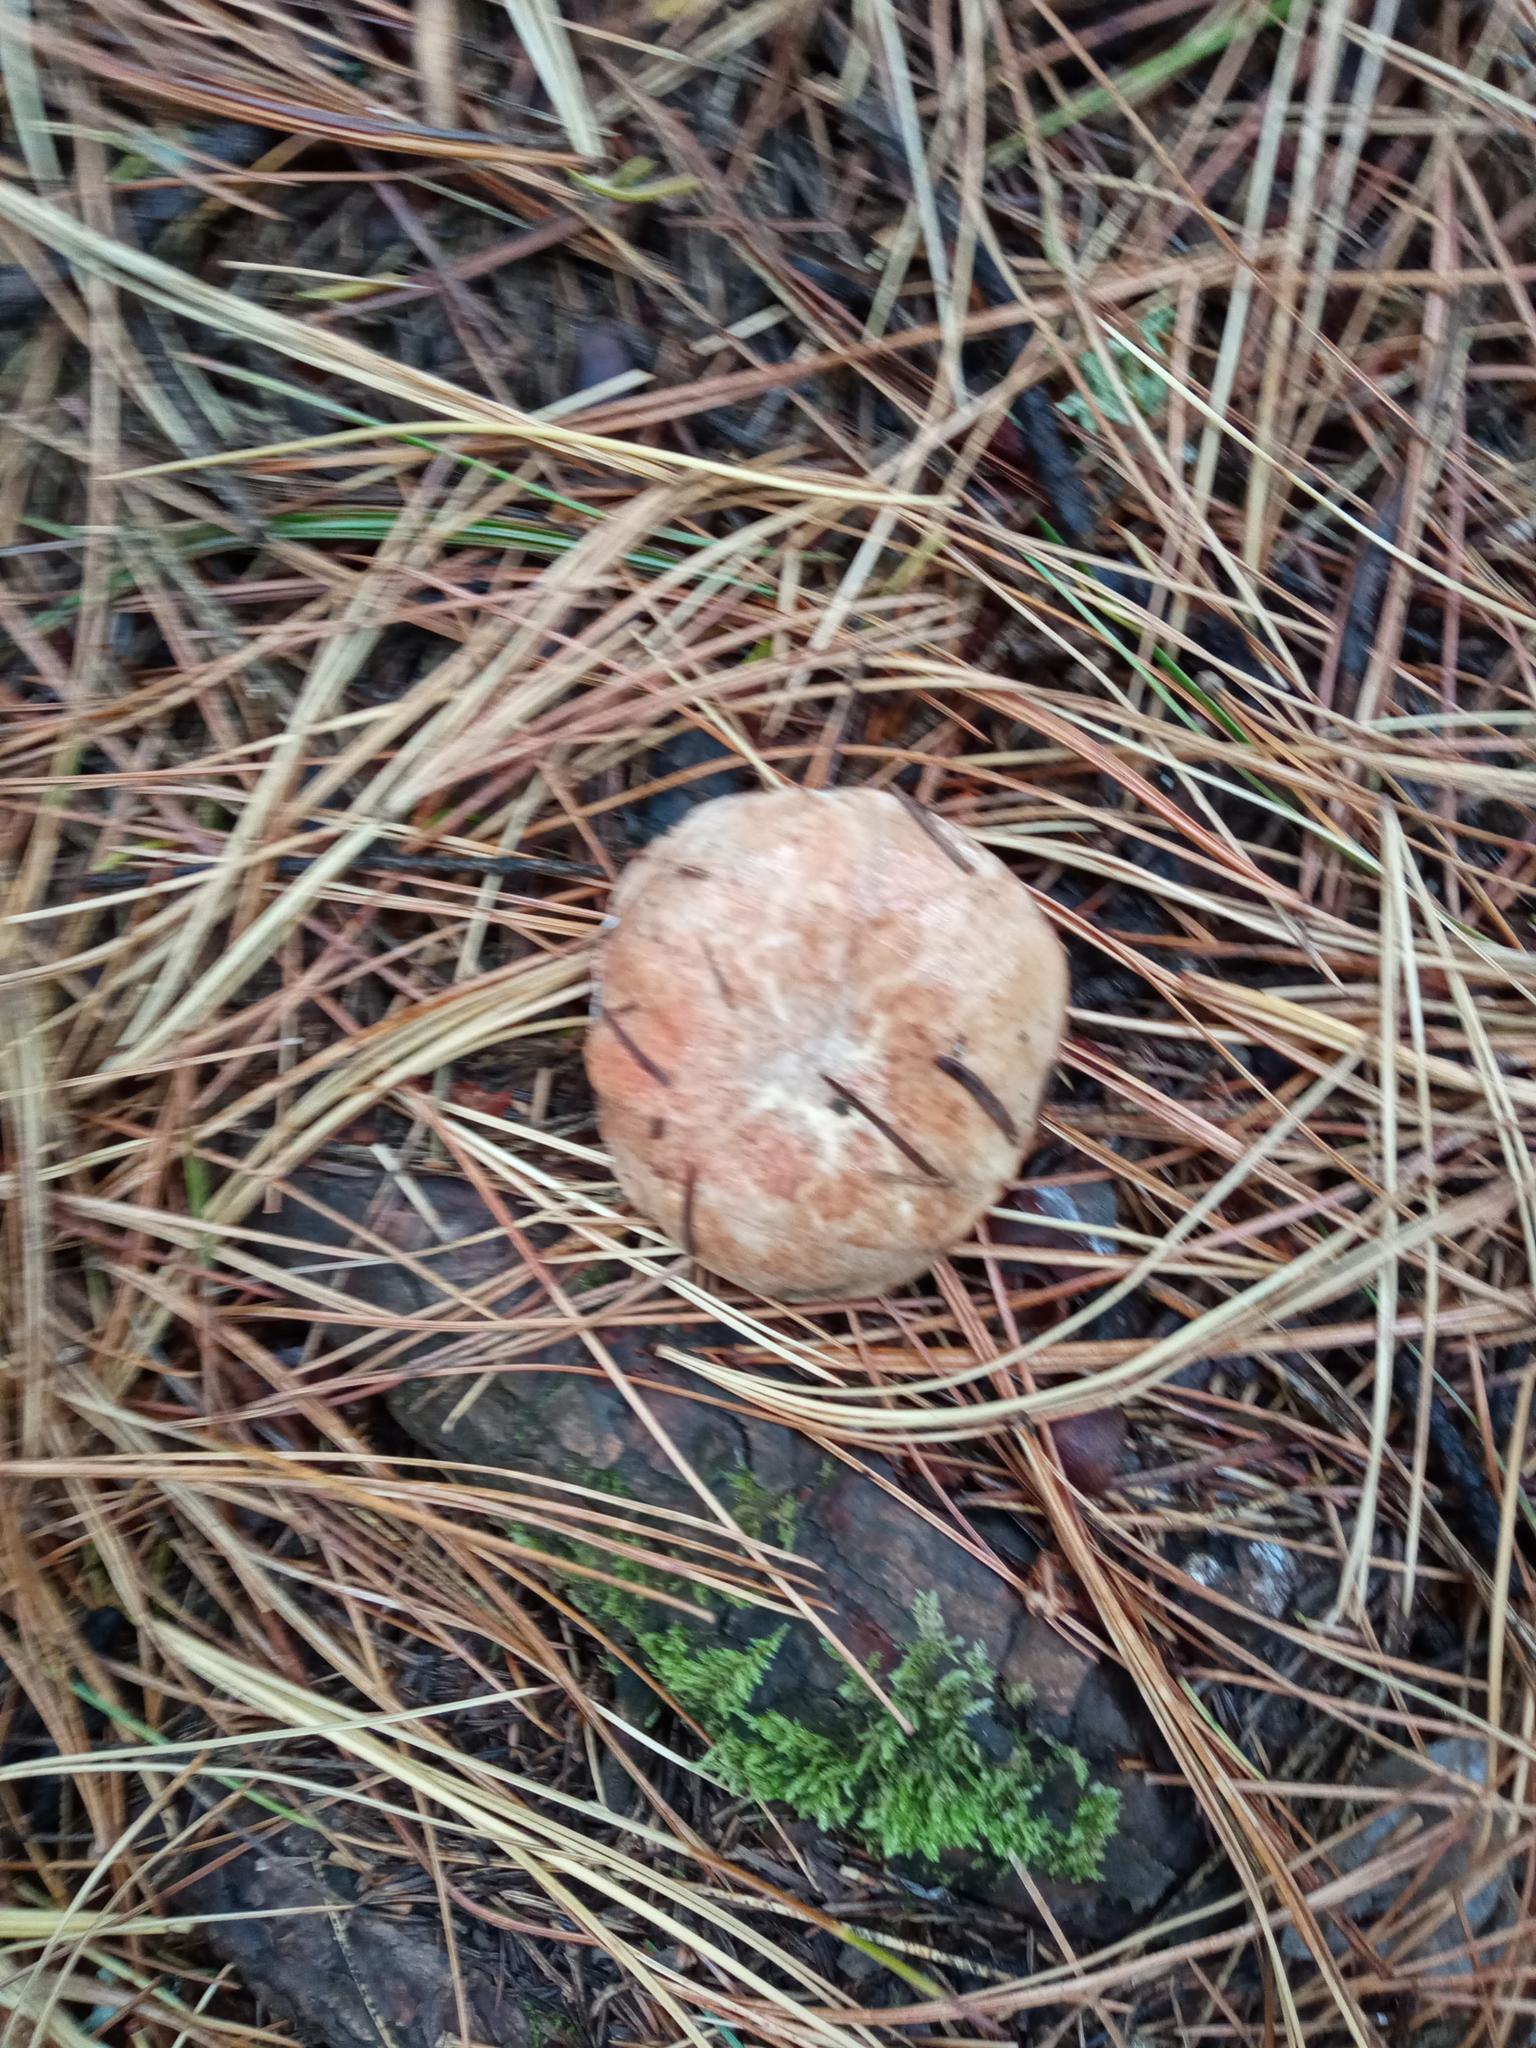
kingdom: Fungi
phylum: Basidiomycota
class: Agaricomycetes
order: Boletales
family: Suillaceae
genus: Suillus
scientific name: Suillus placidus
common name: Slippery white bolete
